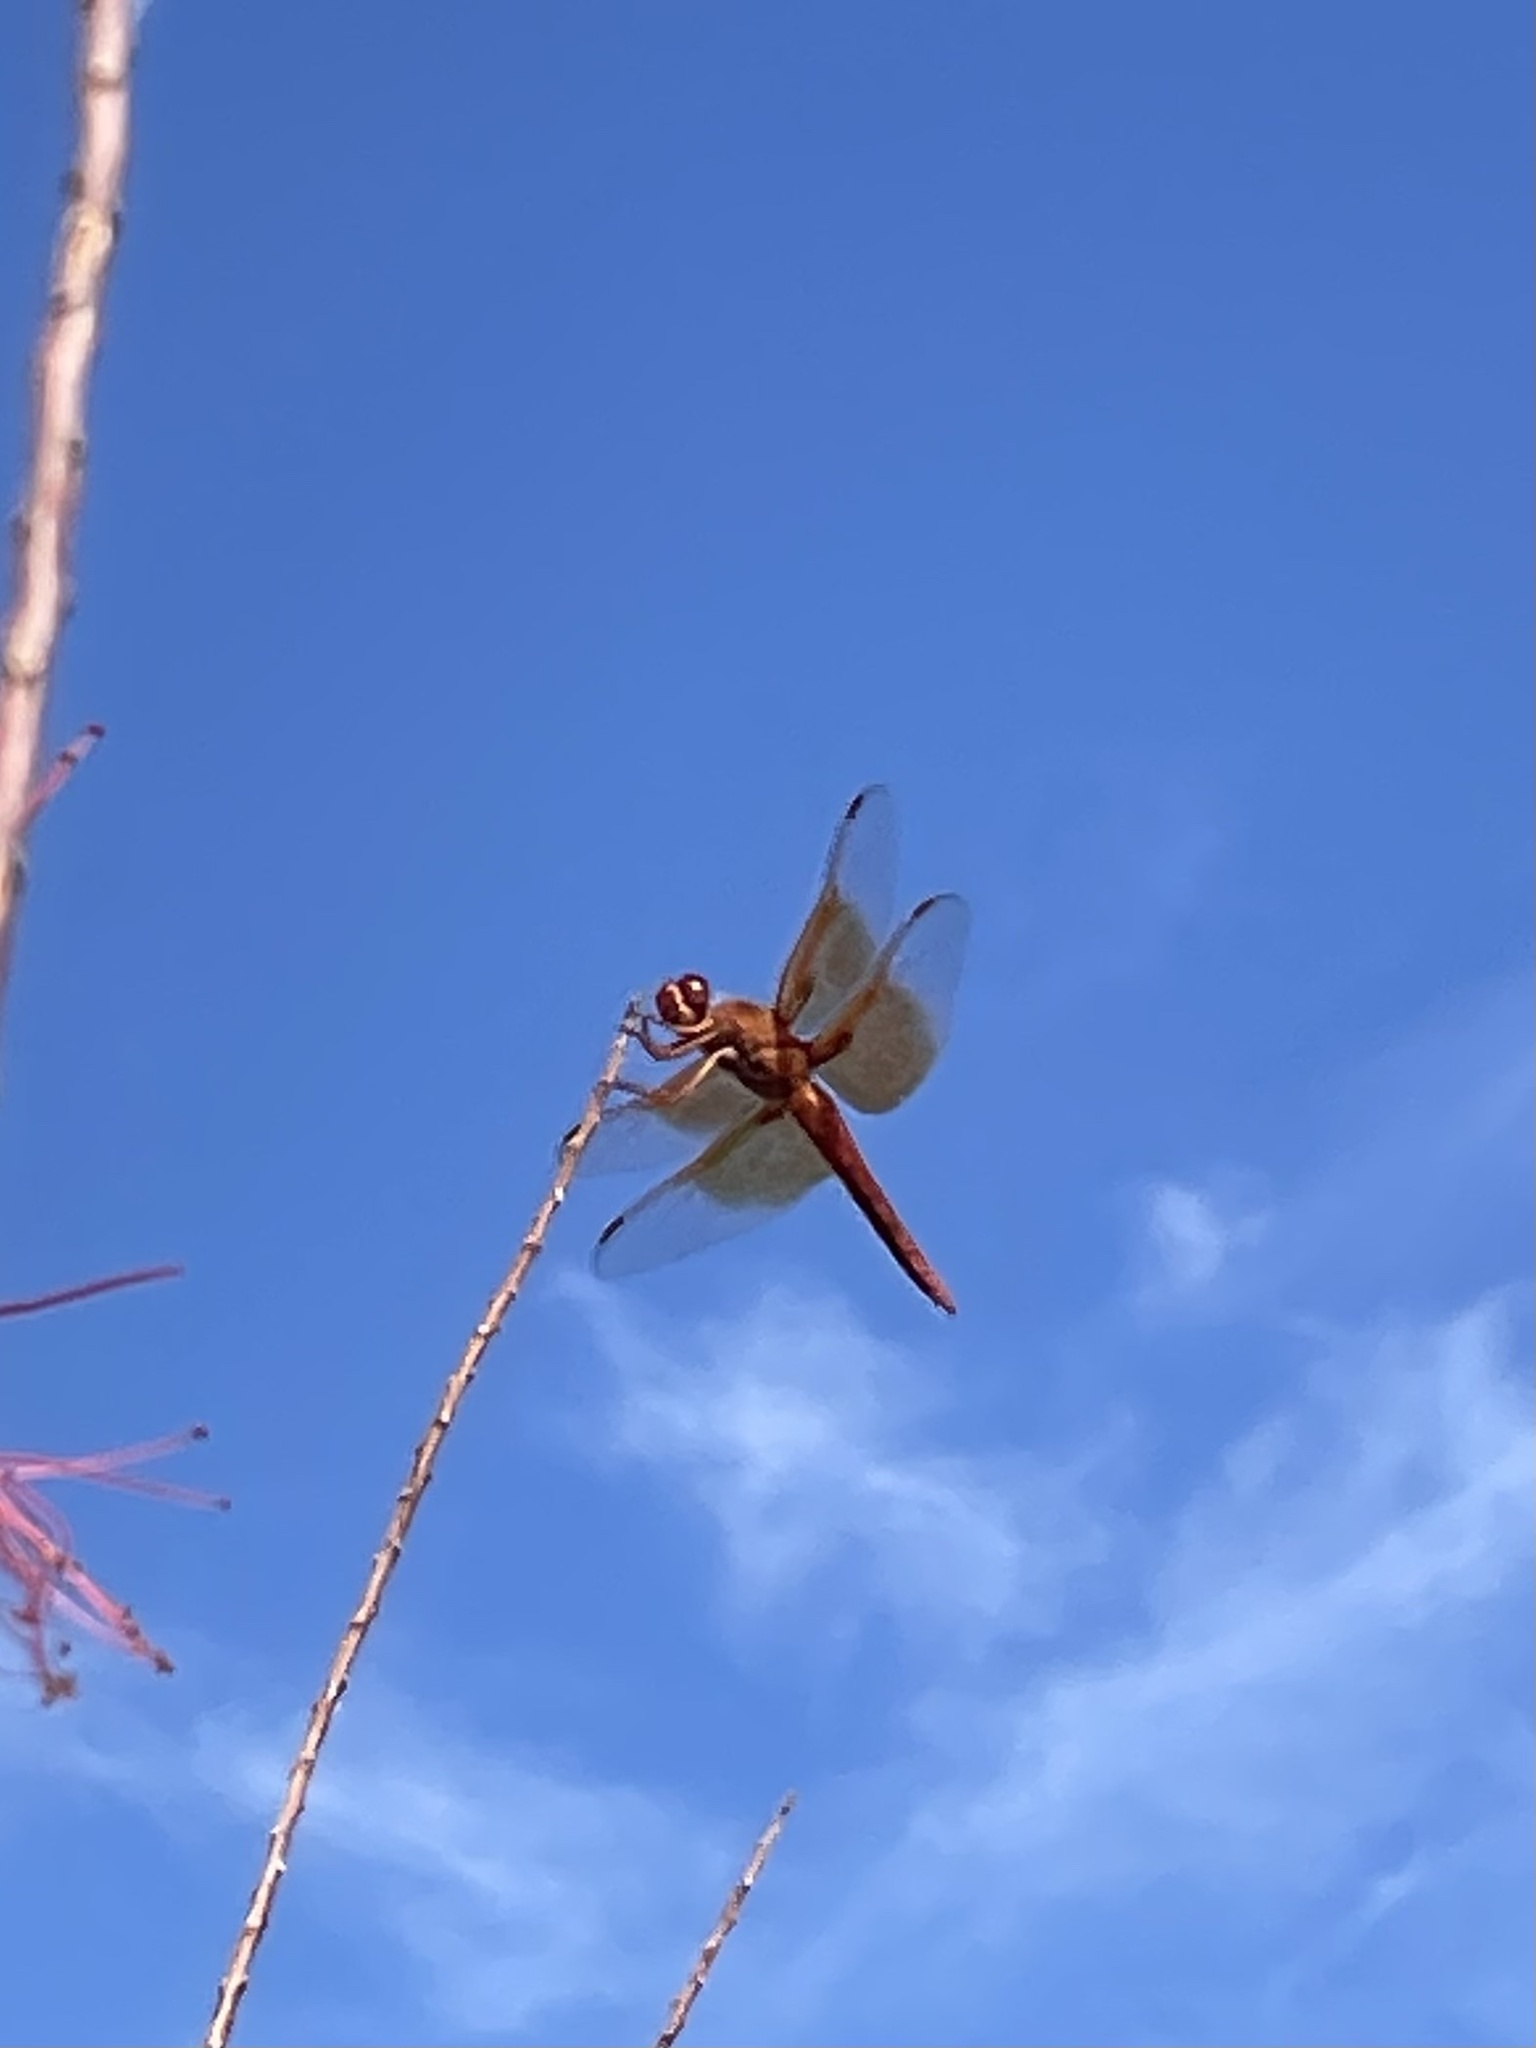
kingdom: Animalia
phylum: Arthropoda
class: Insecta
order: Odonata
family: Libellulidae
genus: Libellula
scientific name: Libellula saturata
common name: Flame skimmer
